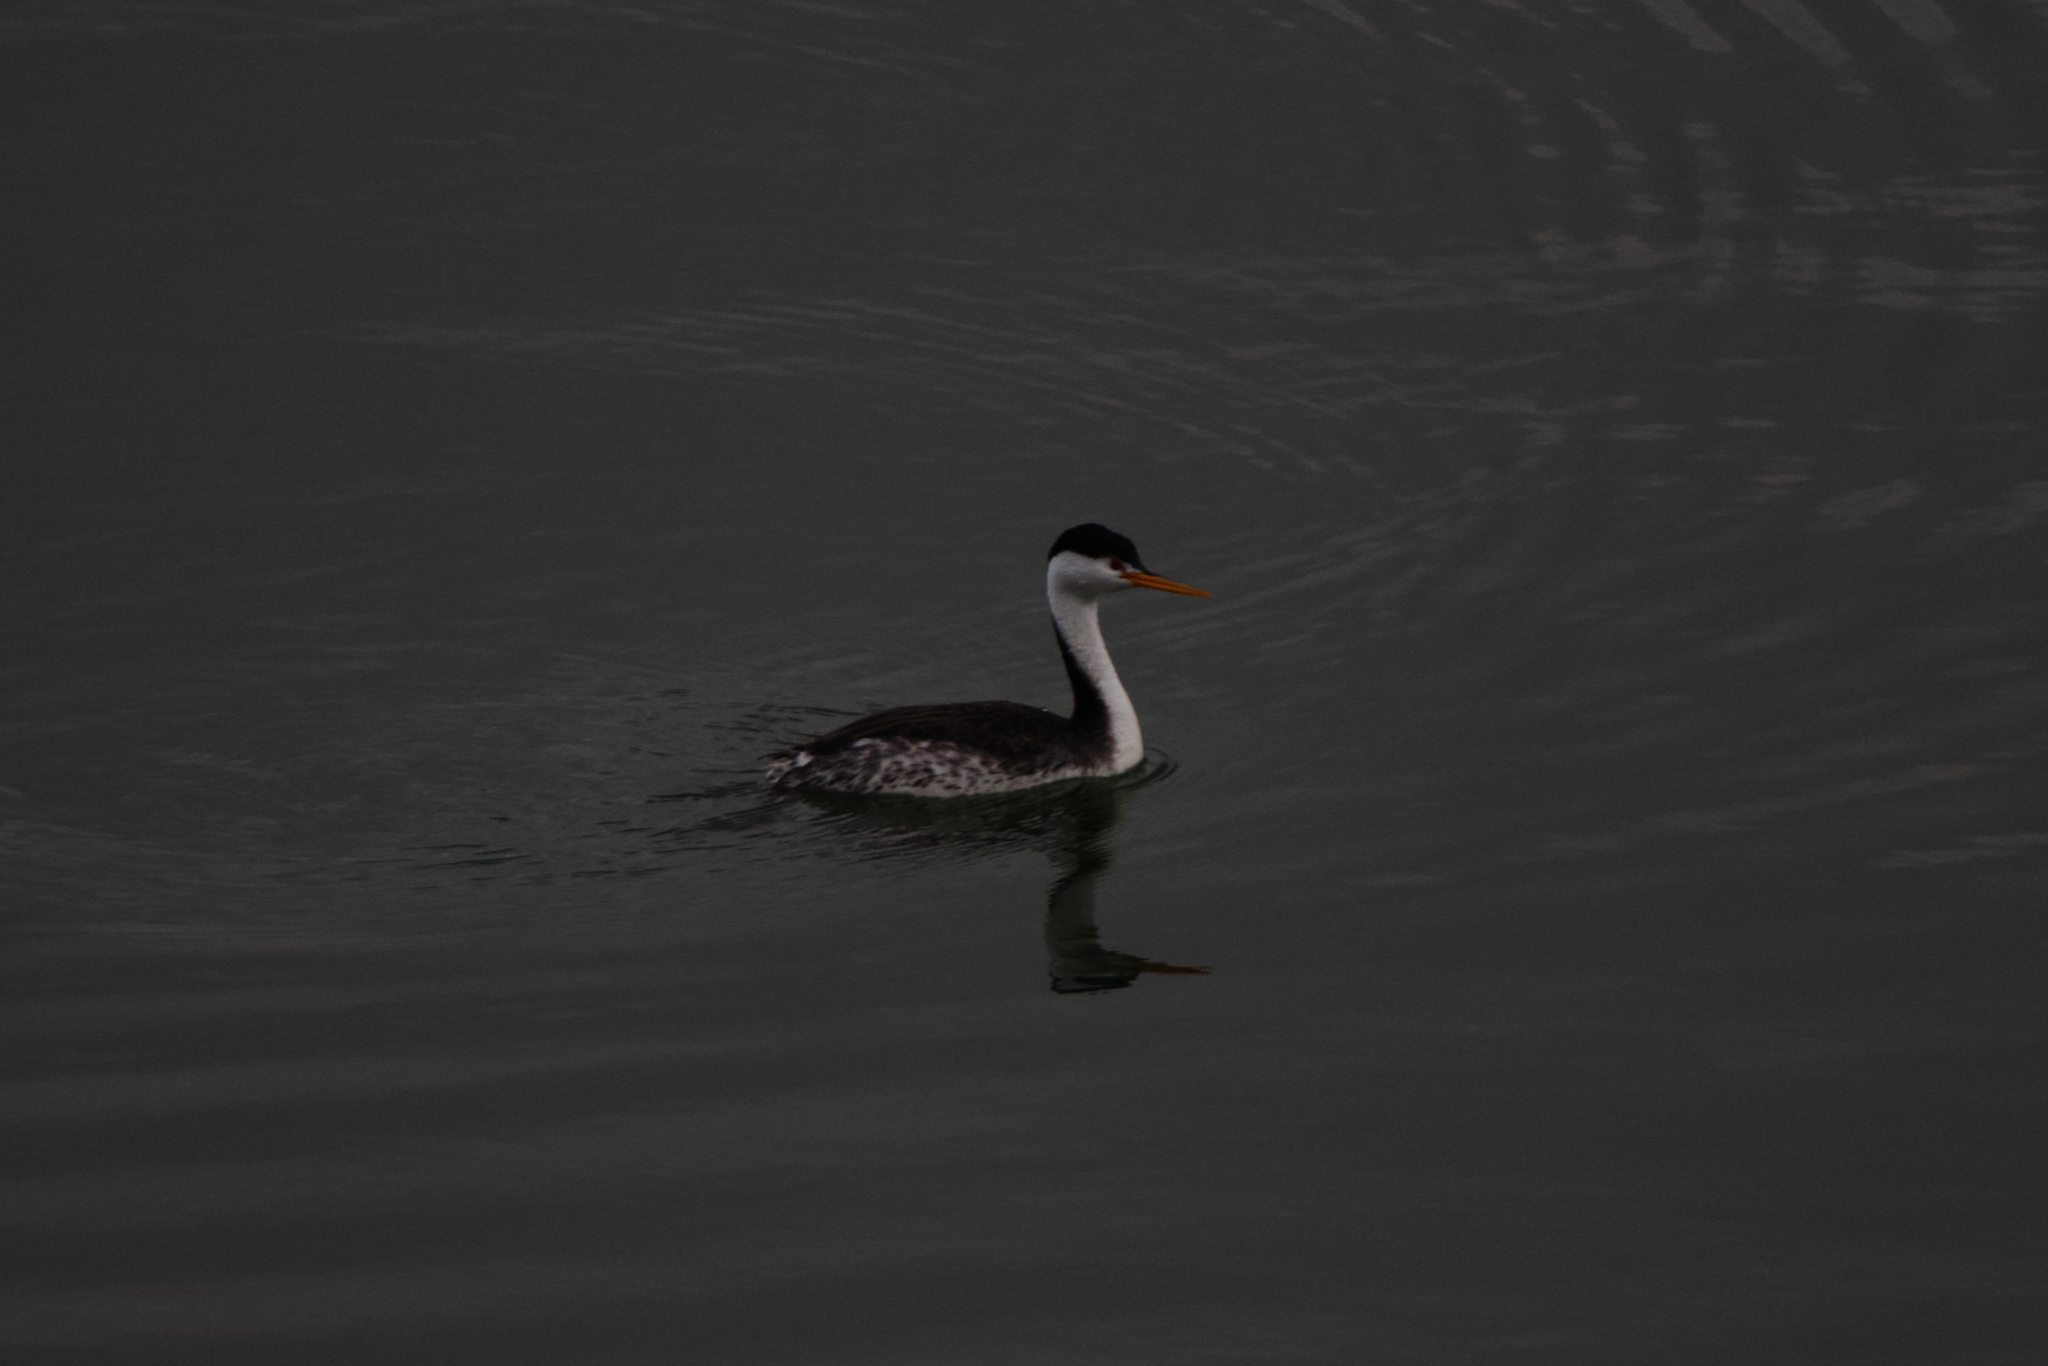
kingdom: Animalia
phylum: Chordata
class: Aves
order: Podicipediformes
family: Podicipedidae
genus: Aechmophorus
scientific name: Aechmophorus clarkii
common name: Clark's grebe
